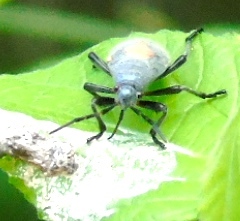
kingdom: Animalia
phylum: Arthropoda
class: Insecta
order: Hemiptera
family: Largidae
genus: Largus
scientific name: Largus
